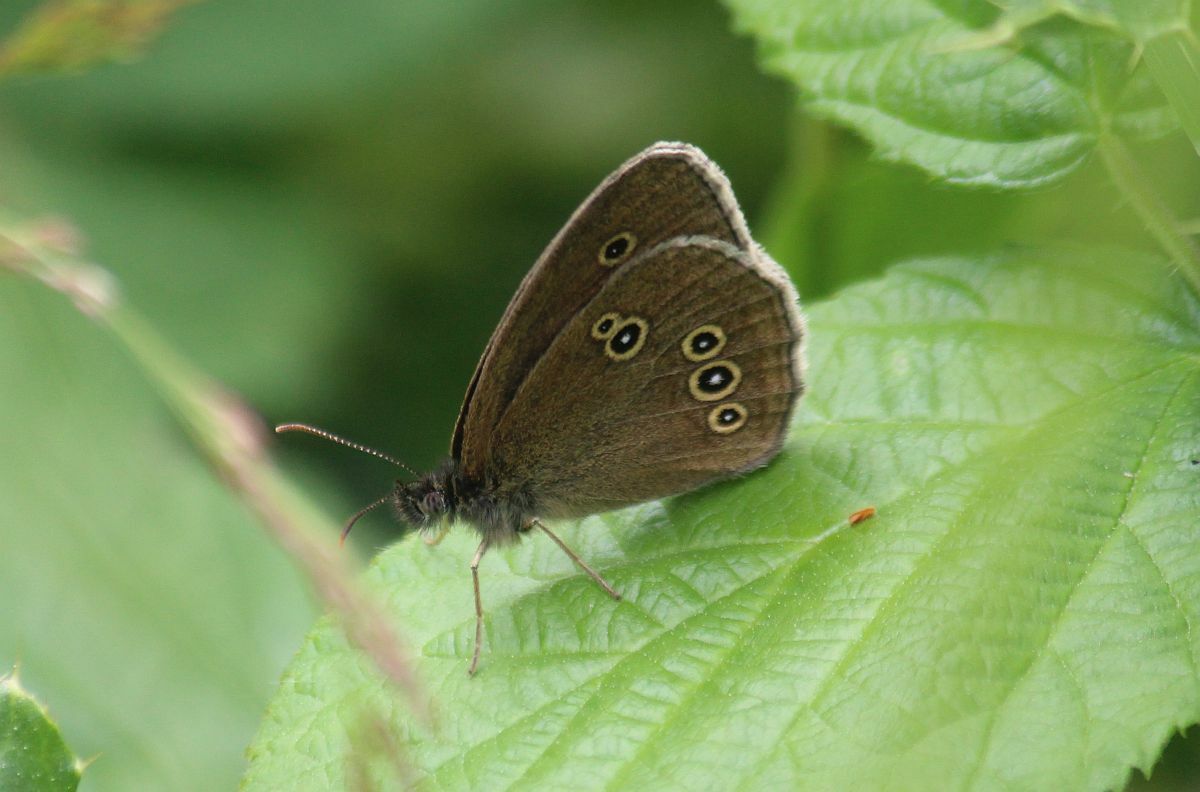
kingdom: Animalia
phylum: Arthropoda
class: Insecta
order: Lepidoptera
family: Nymphalidae
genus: Aphantopus
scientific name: Aphantopus hyperantus
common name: Ringlet
